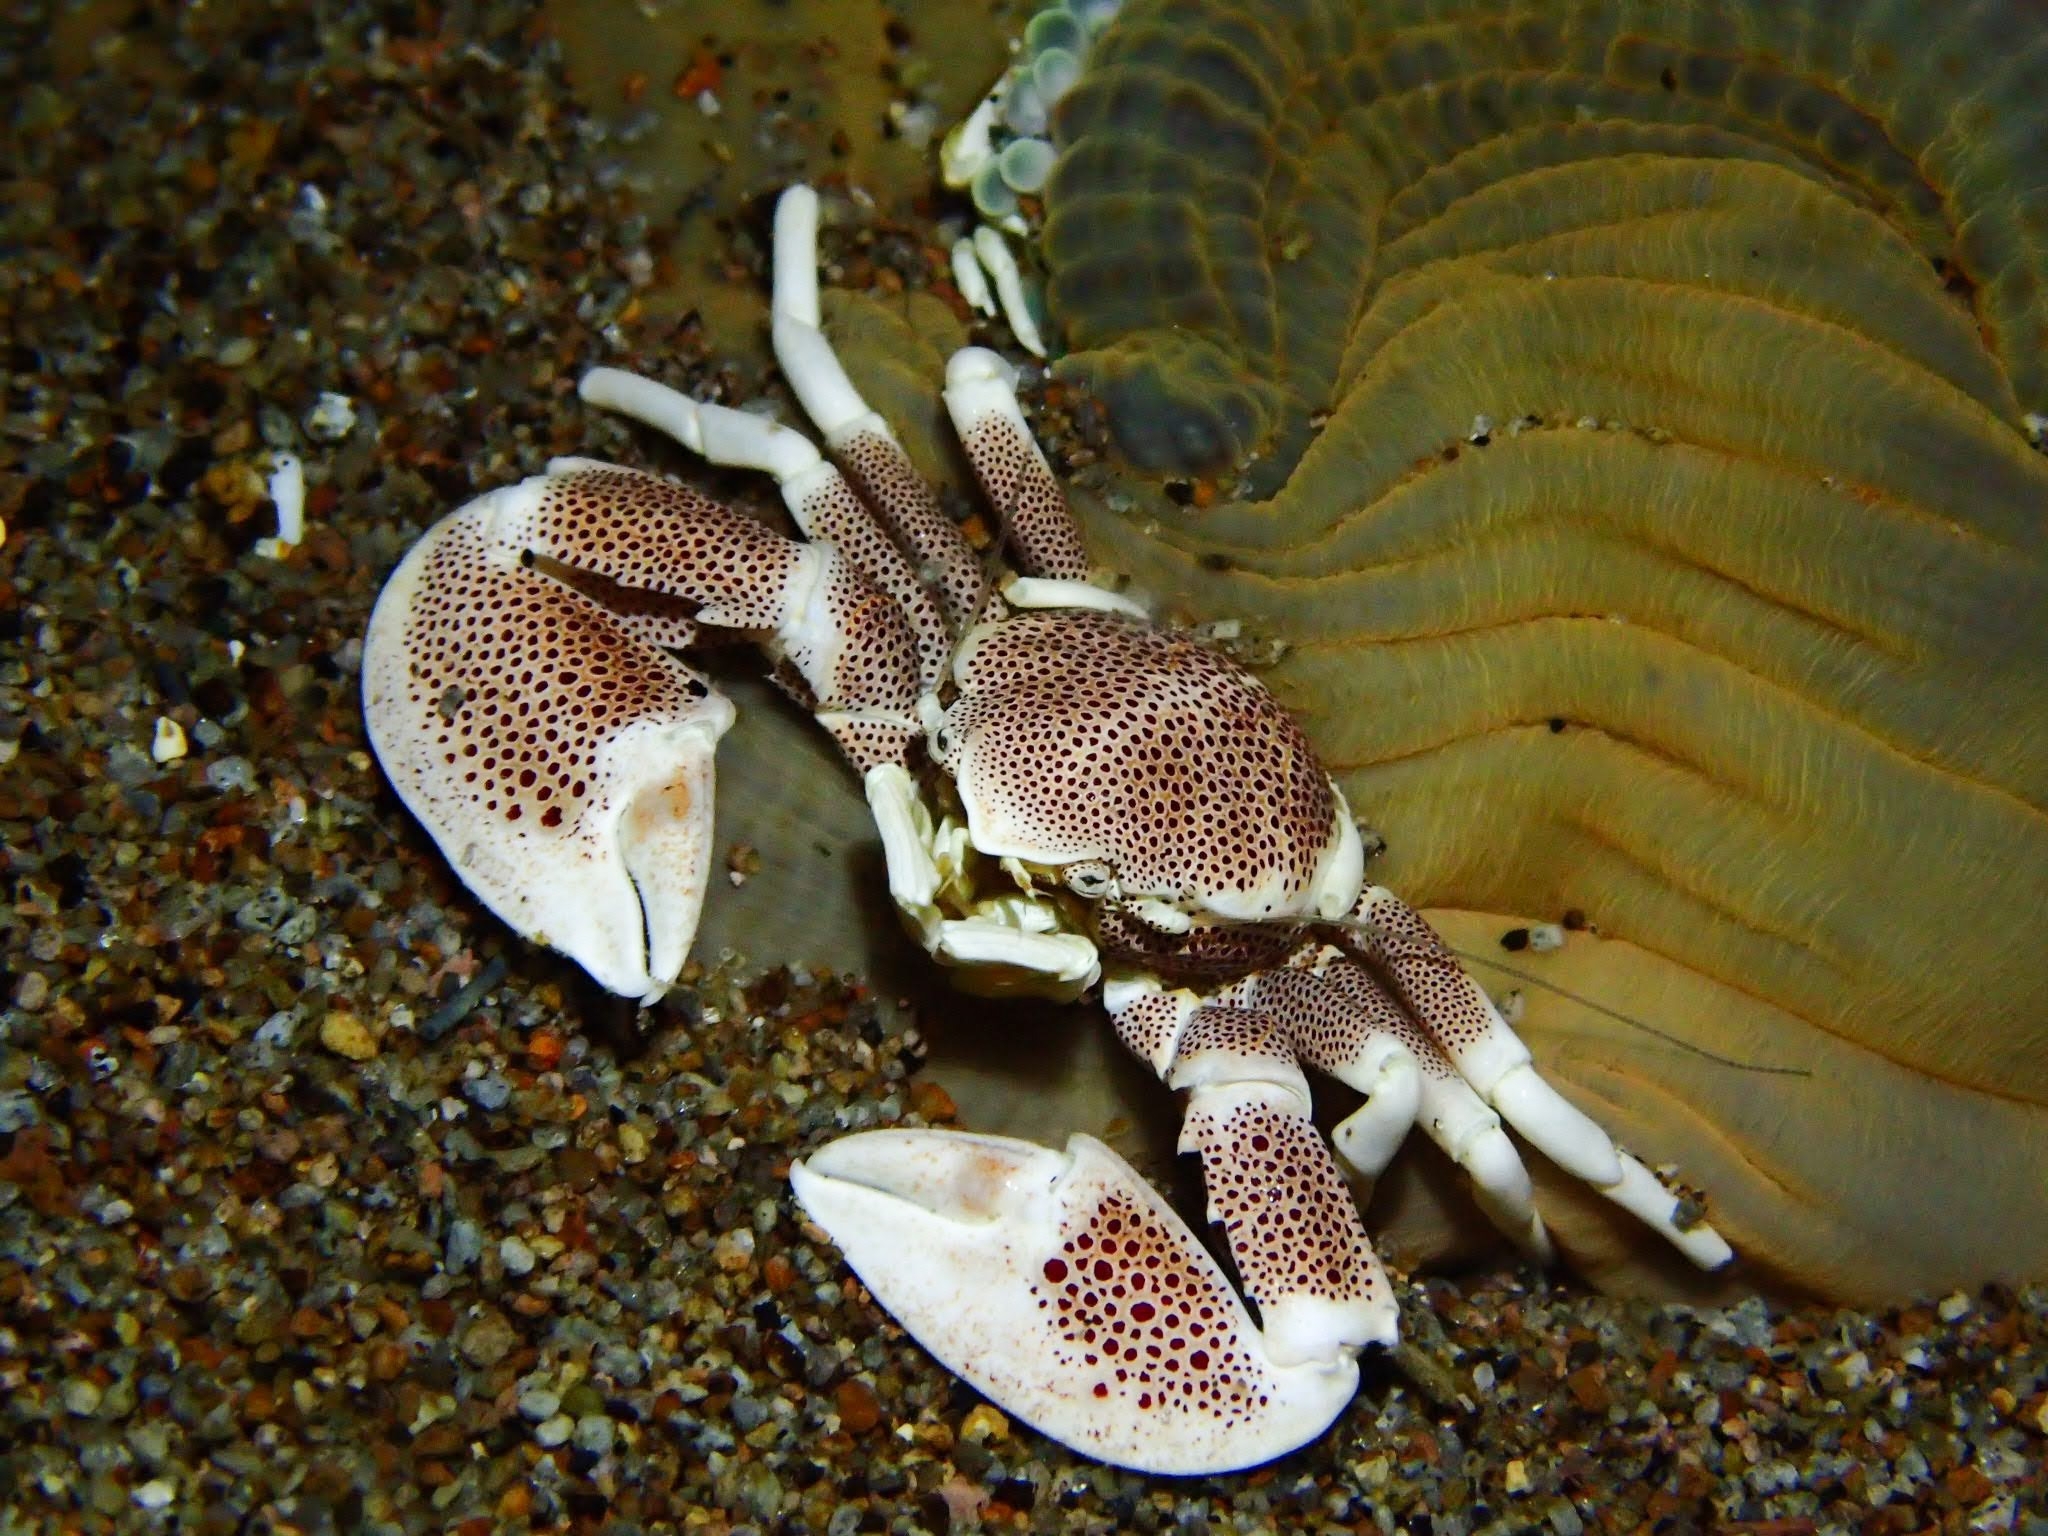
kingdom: Animalia
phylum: Arthropoda
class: Malacostraca
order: Decapoda
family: Porcellanidae
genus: Neopetrolisthes
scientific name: Neopetrolisthes maculatus
